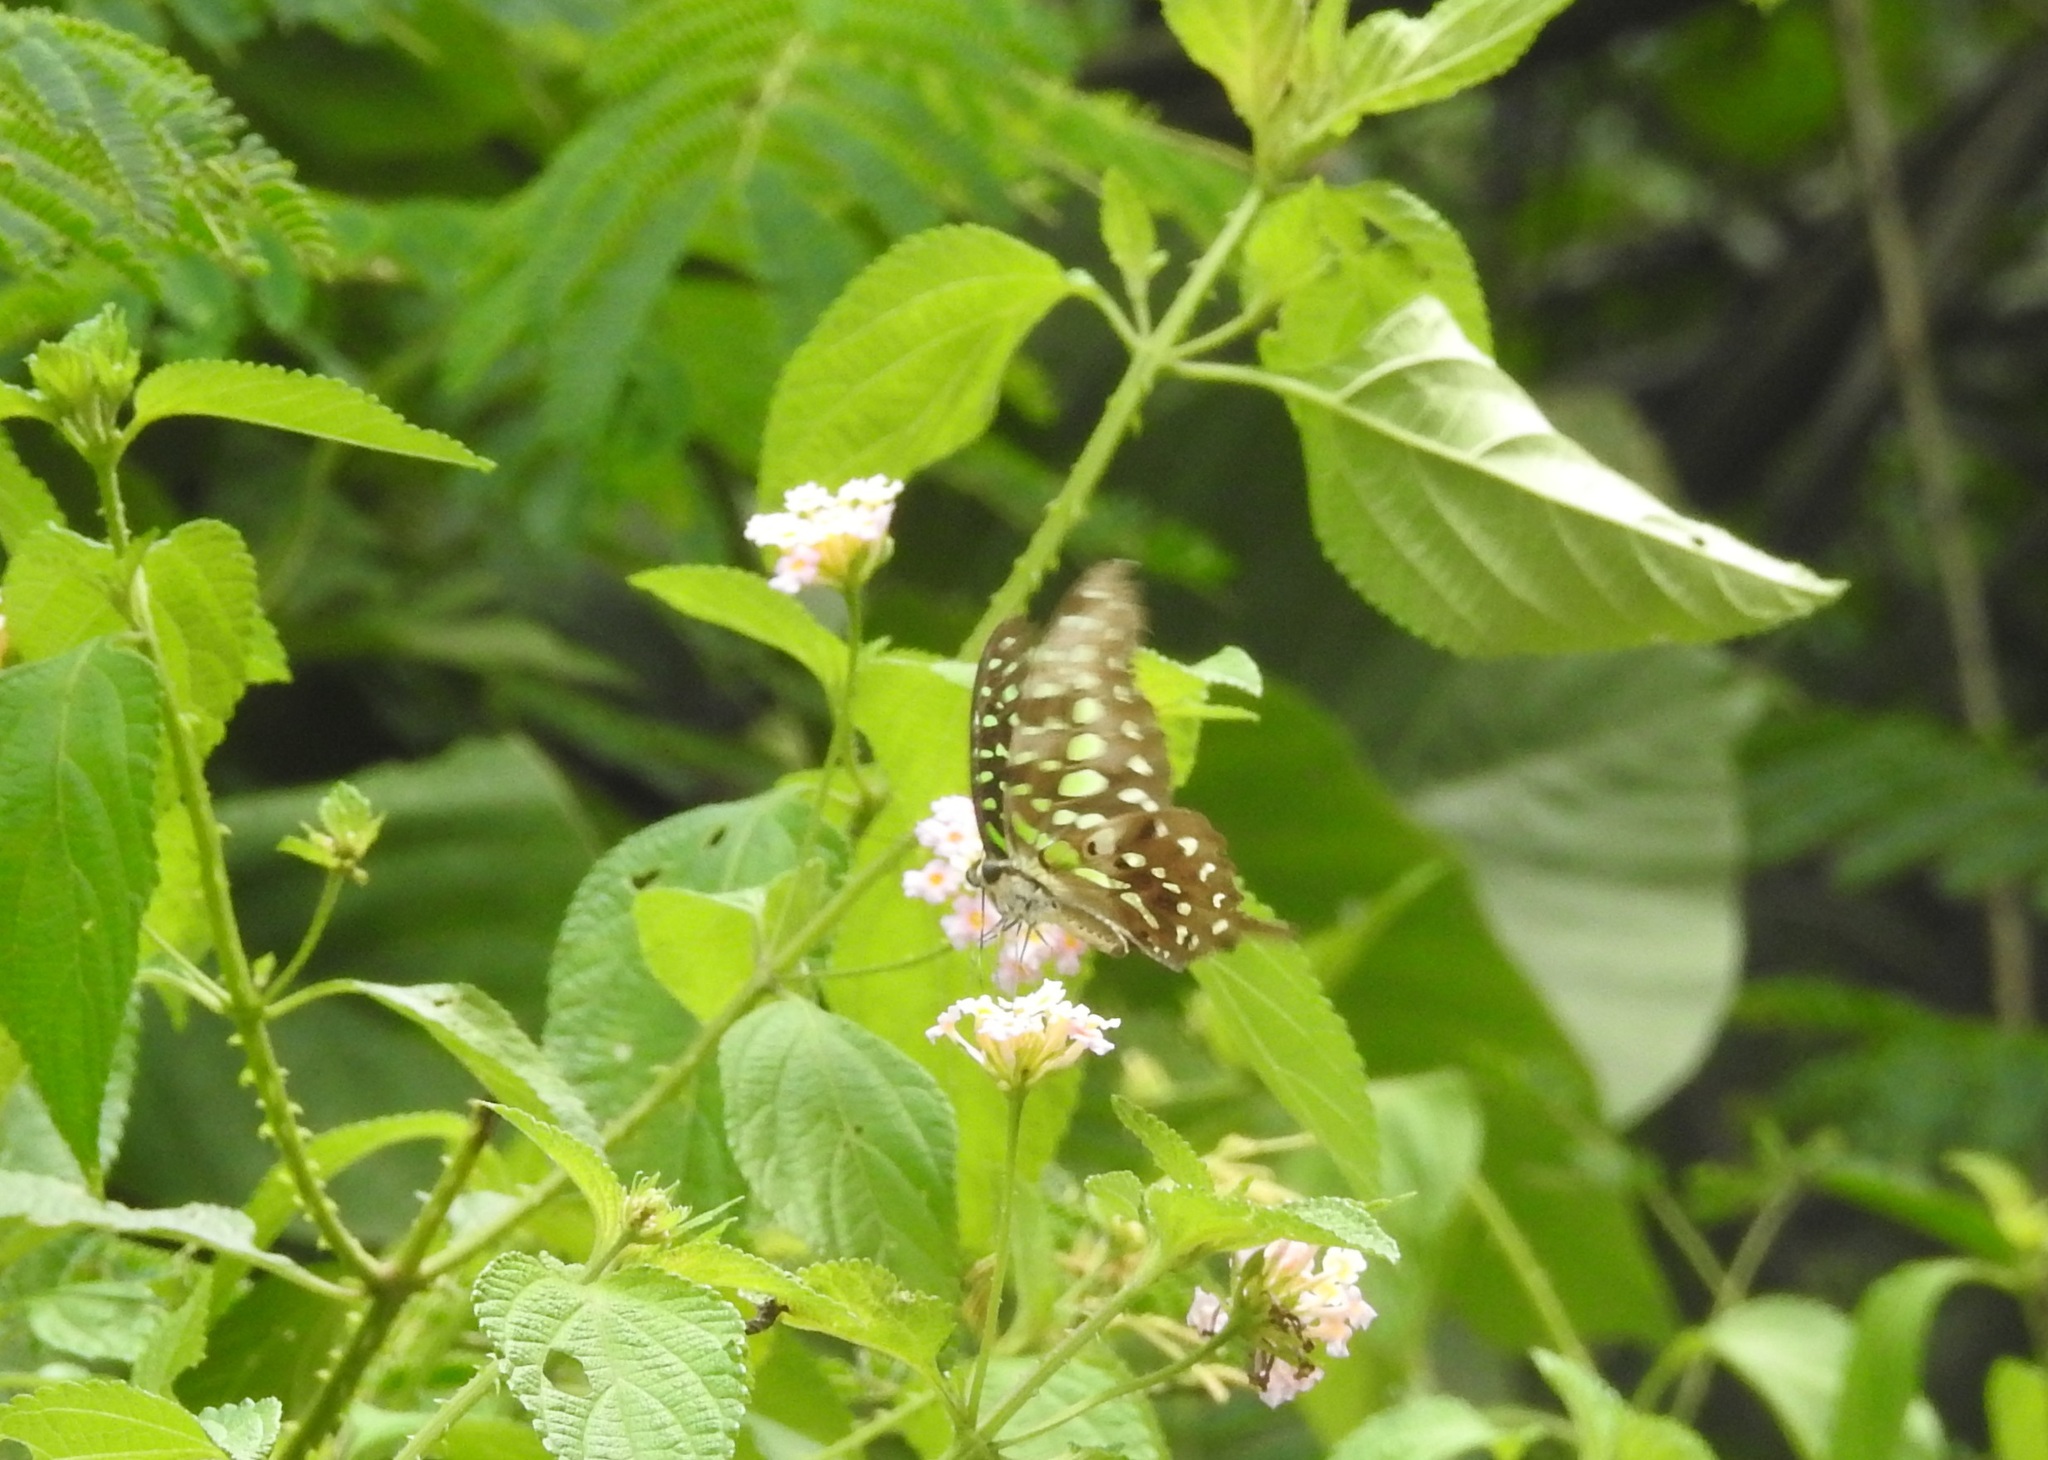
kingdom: Animalia
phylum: Arthropoda
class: Insecta
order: Lepidoptera
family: Papilionidae
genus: Graphium
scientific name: Graphium agamemnon
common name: Tailed jay
